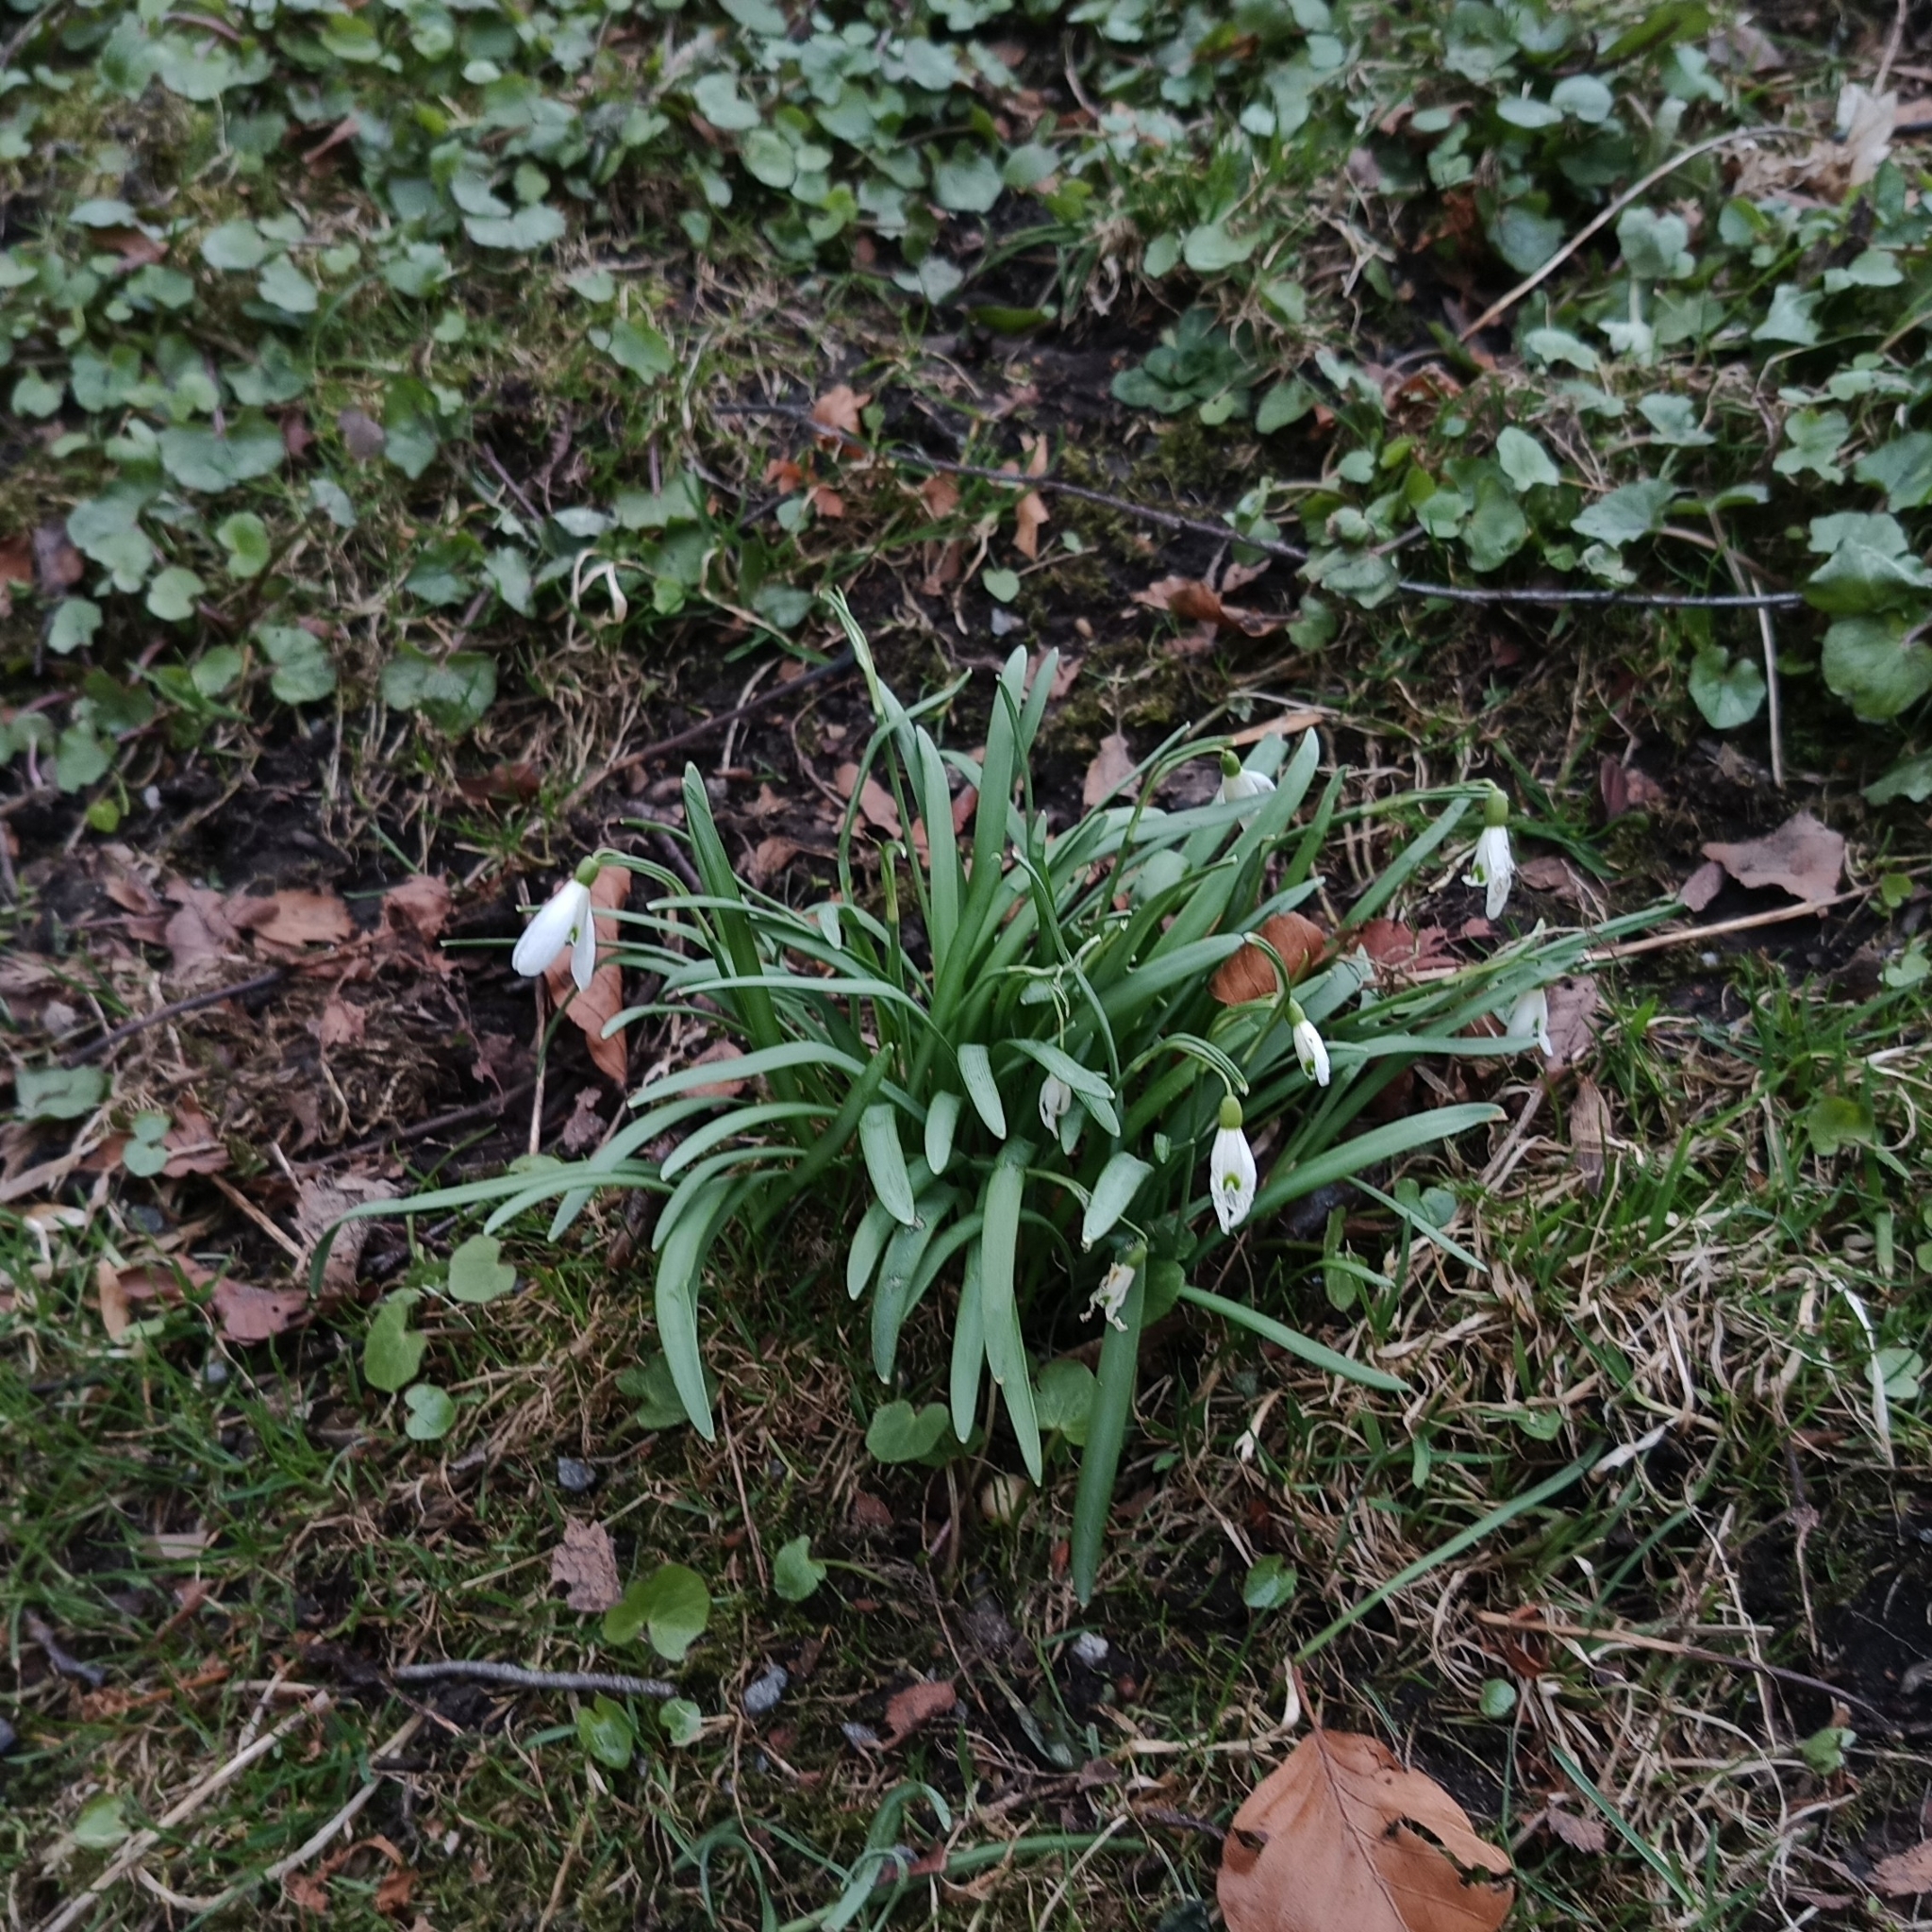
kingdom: Plantae
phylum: Tracheophyta
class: Liliopsida
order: Asparagales
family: Amaryllidaceae
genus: Galanthus
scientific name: Galanthus nivalis
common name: Snowdrop
